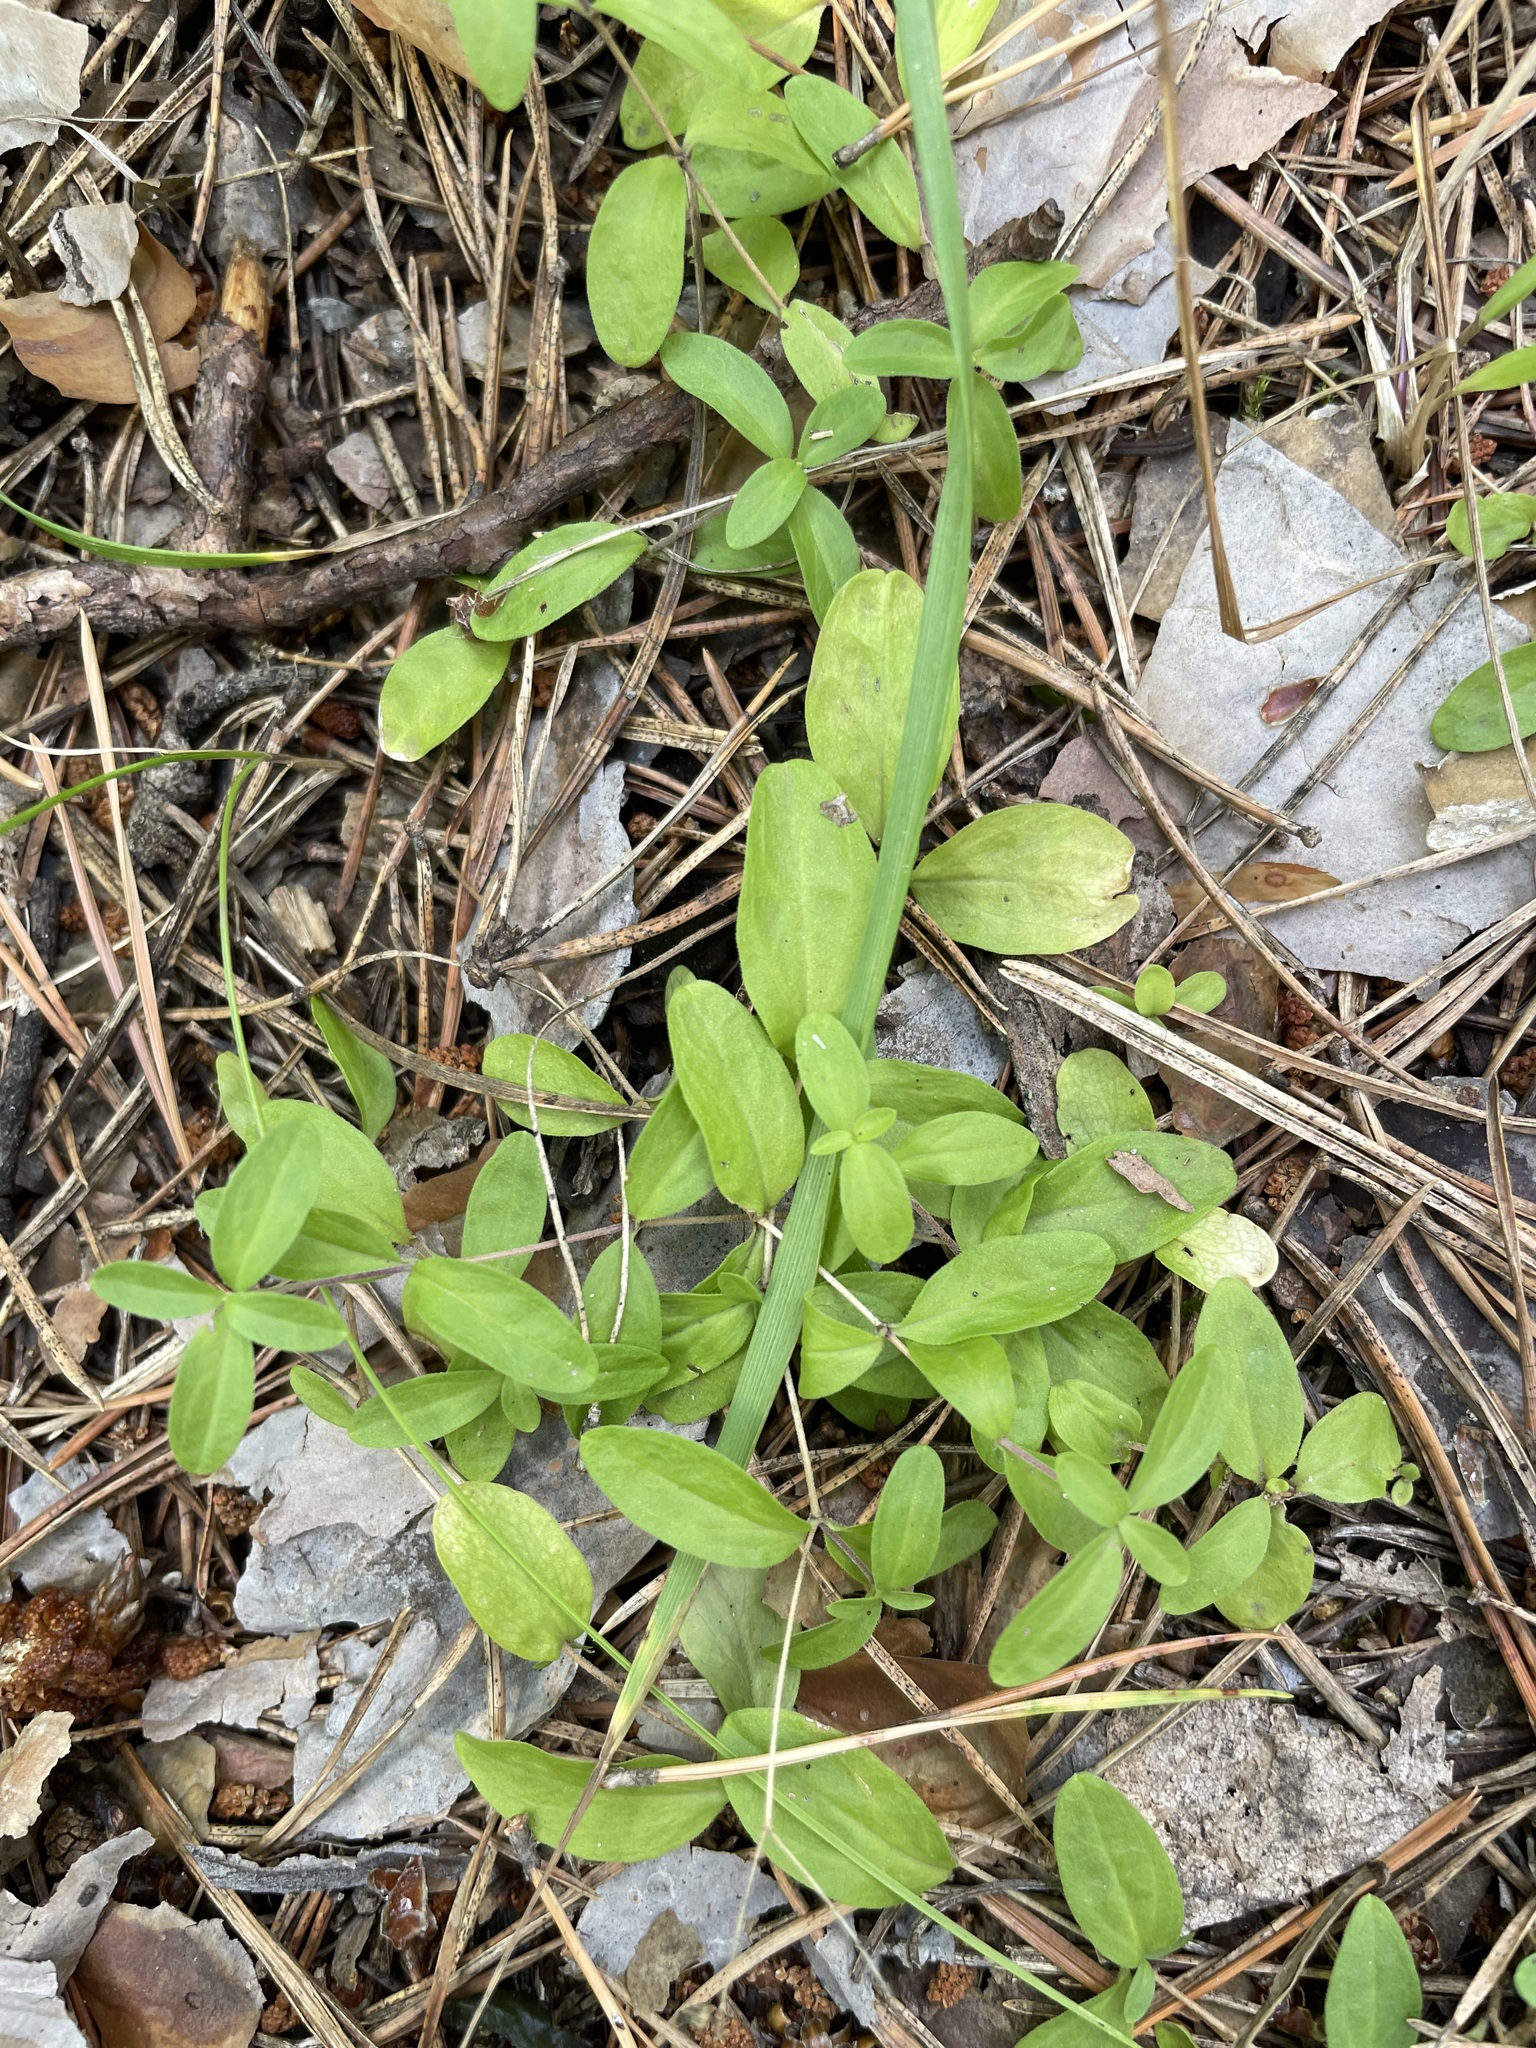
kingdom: Plantae
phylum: Tracheophyta
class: Magnoliopsida
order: Caryophyllales
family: Caryophyllaceae
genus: Moehringia
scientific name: Moehringia lateriflora
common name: Blunt-leaved sandwort
